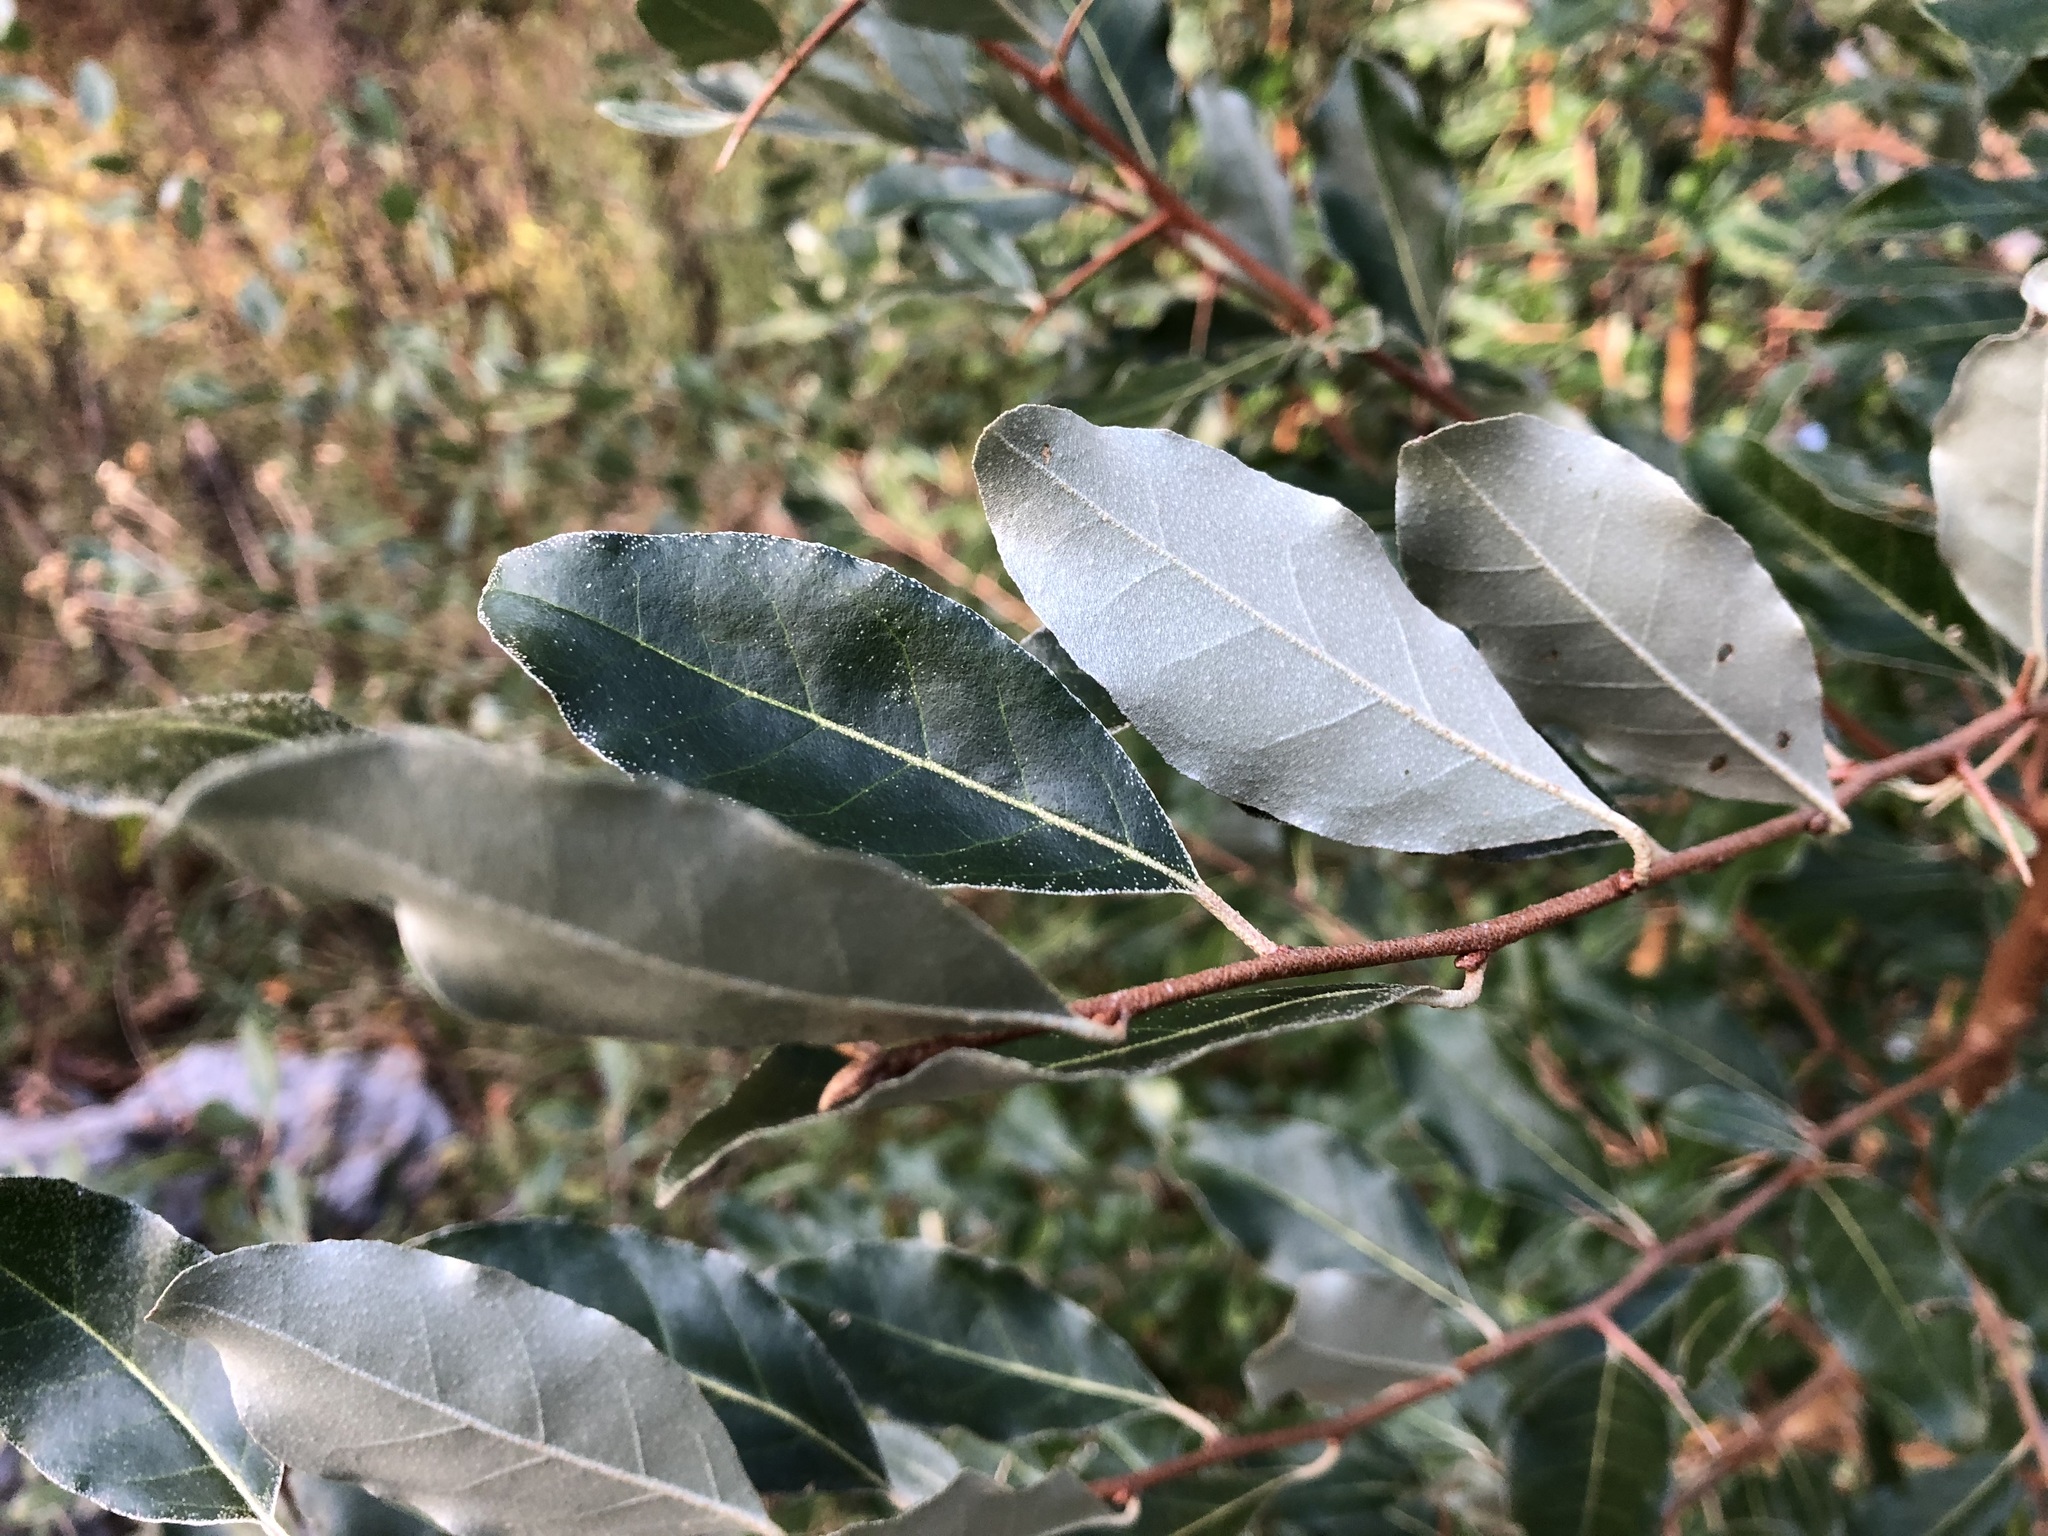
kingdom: Plantae
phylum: Tracheophyta
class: Magnoliopsida
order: Rosales
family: Elaeagnaceae
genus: Elaeagnus
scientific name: Elaeagnus umbellata
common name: Autumn olive
